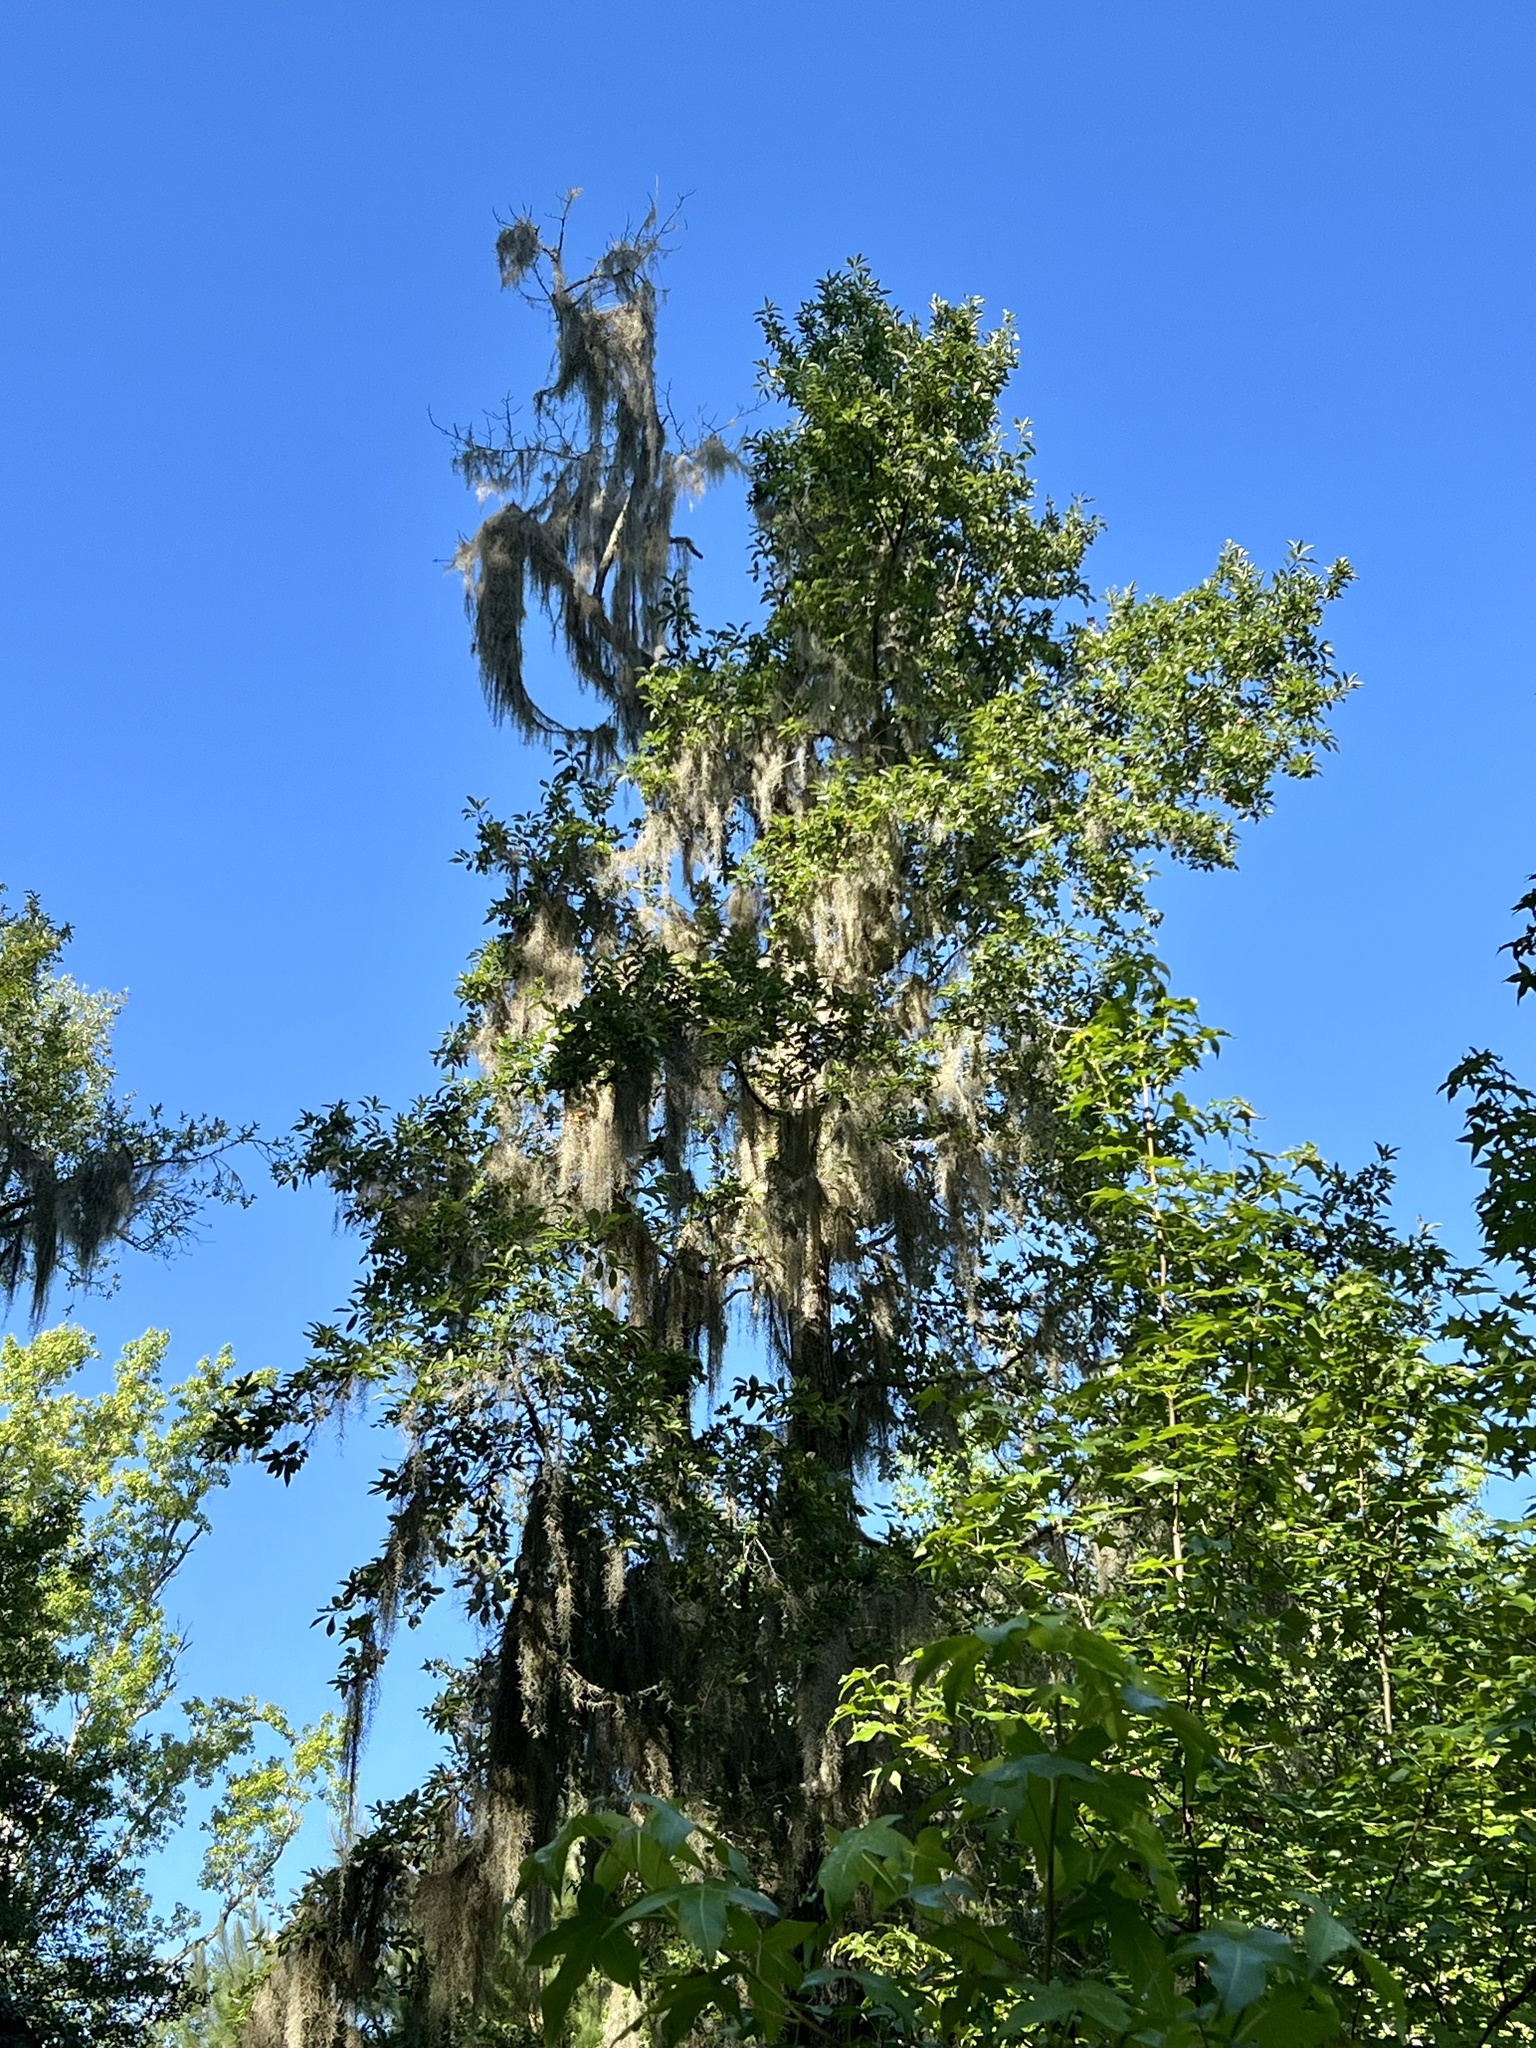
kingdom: Plantae
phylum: Tracheophyta
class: Liliopsida
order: Poales
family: Bromeliaceae
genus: Tillandsia
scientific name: Tillandsia usneoides
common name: Spanish moss
